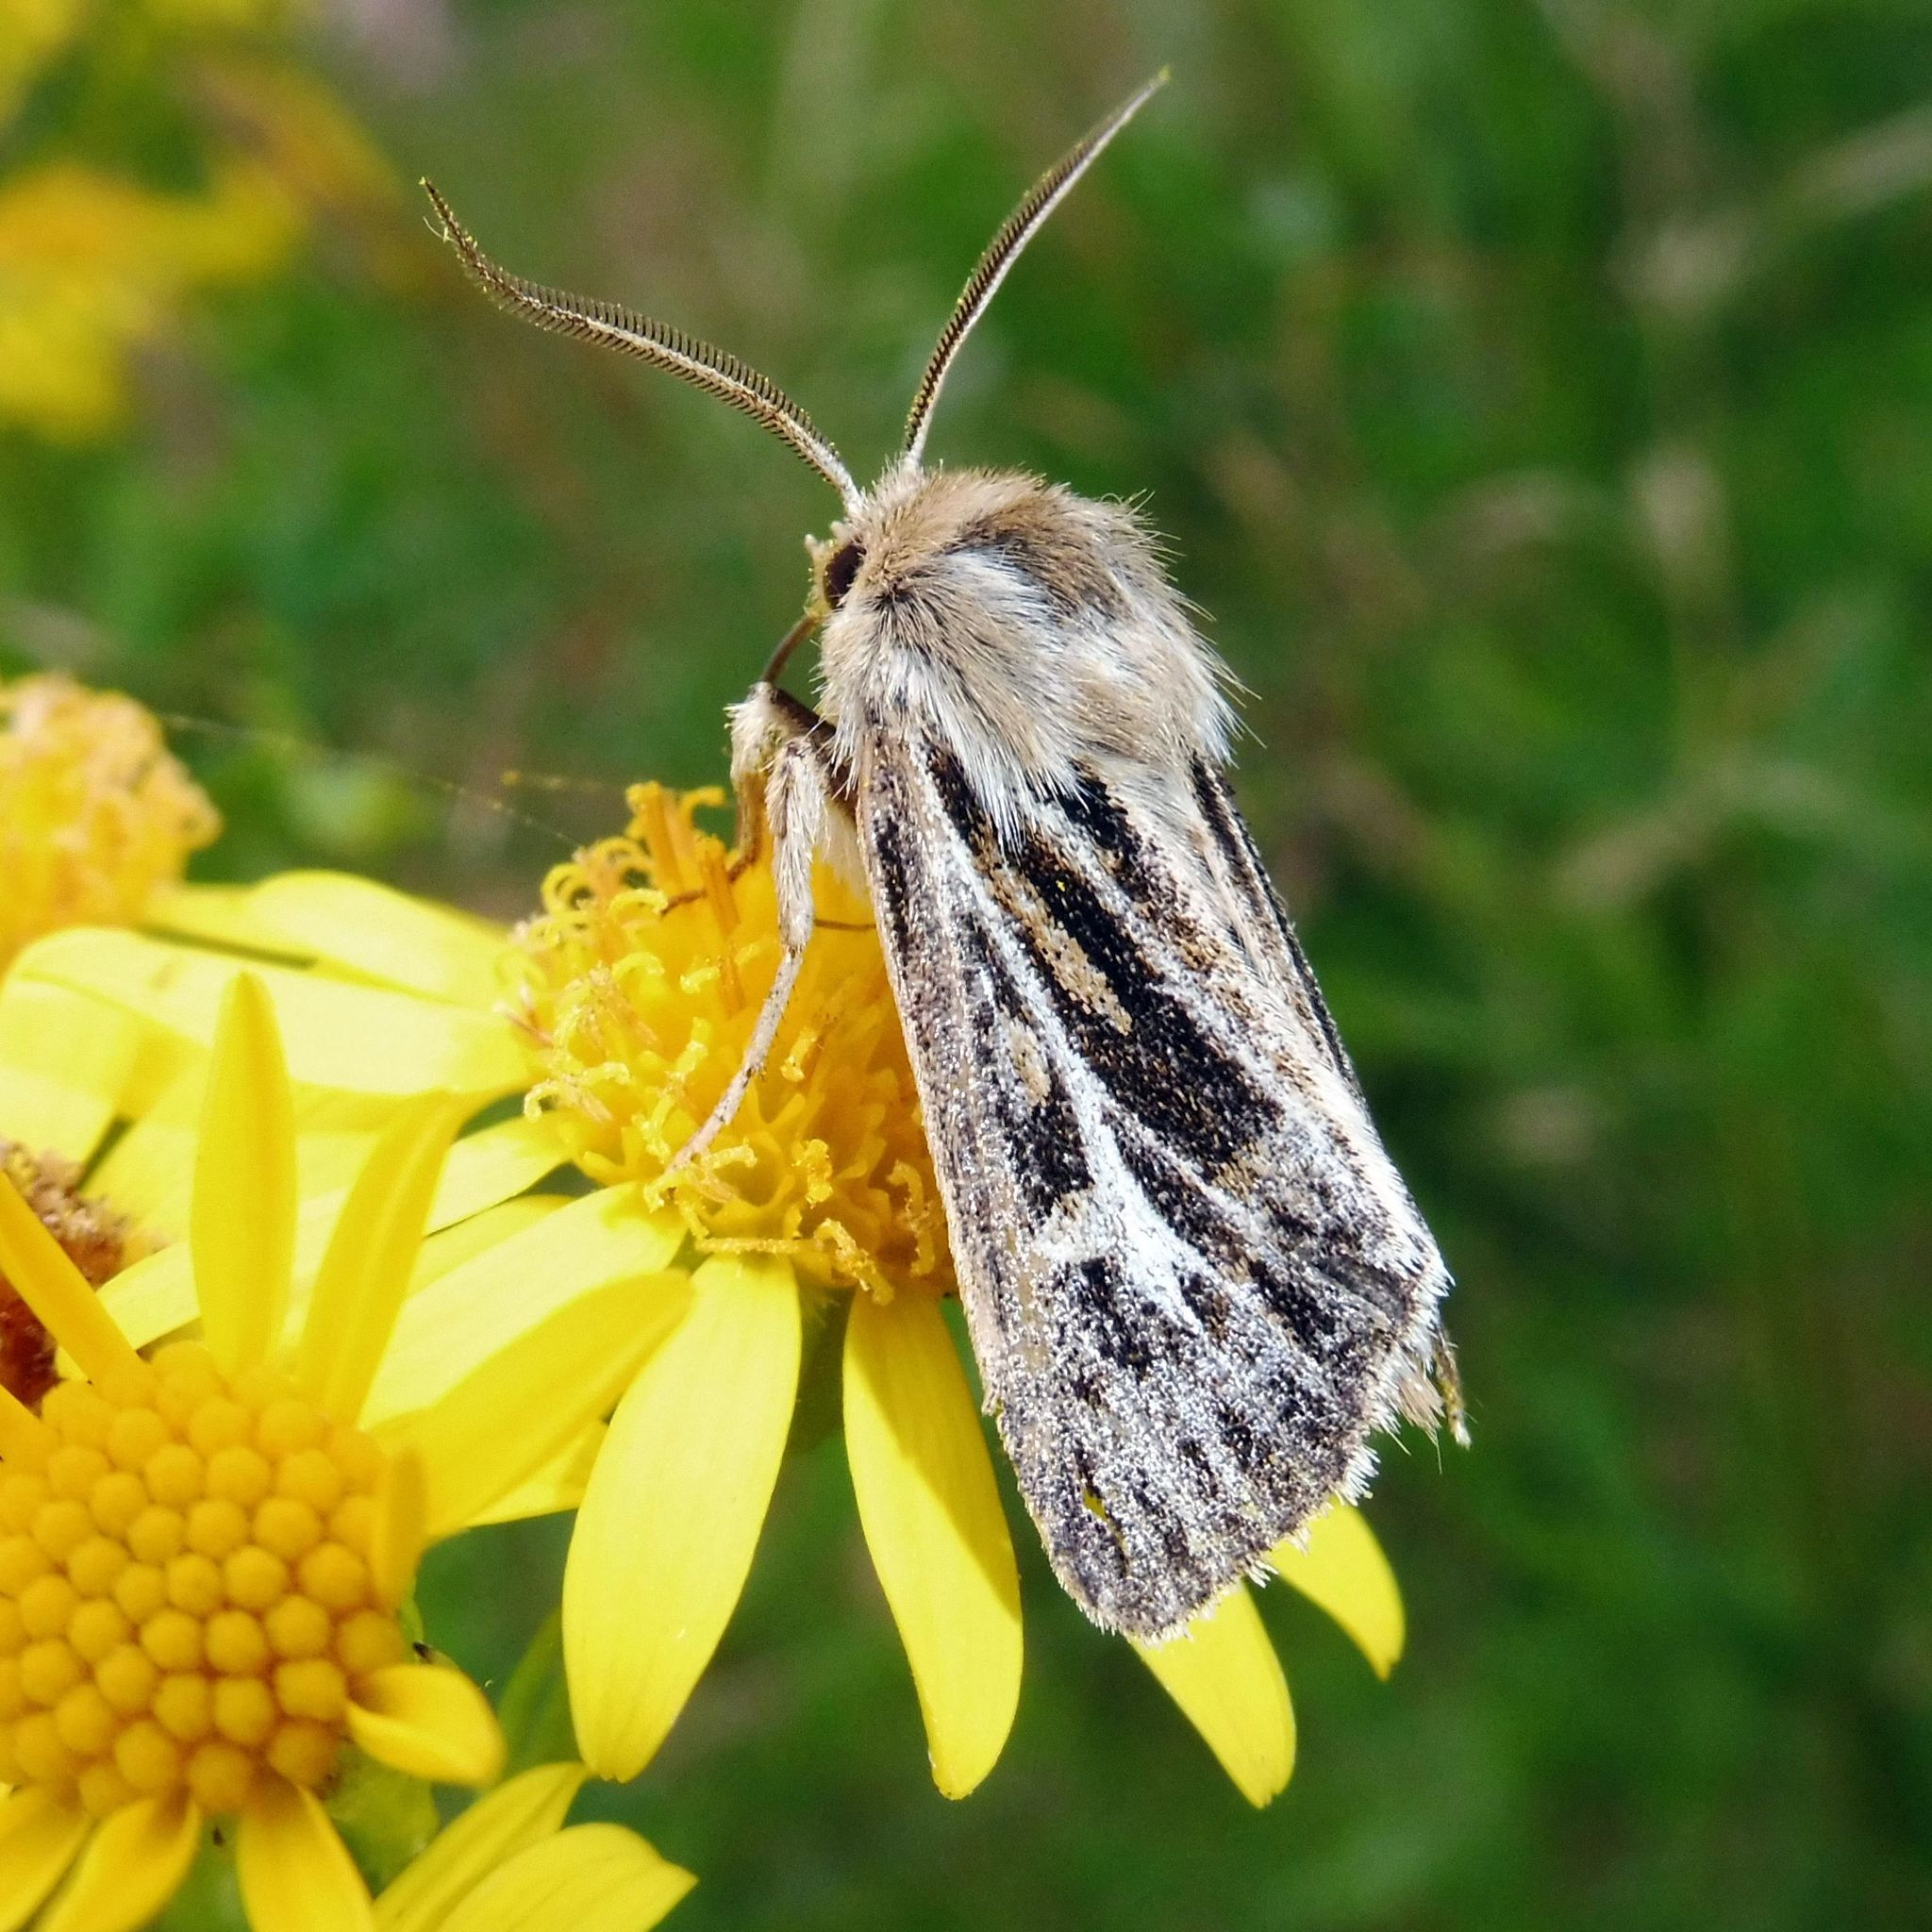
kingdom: Animalia
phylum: Arthropoda
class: Insecta
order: Lepidoptera
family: Noctuidae
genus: Cerapteryx
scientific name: Cerapteryx graminis
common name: Antler moth
